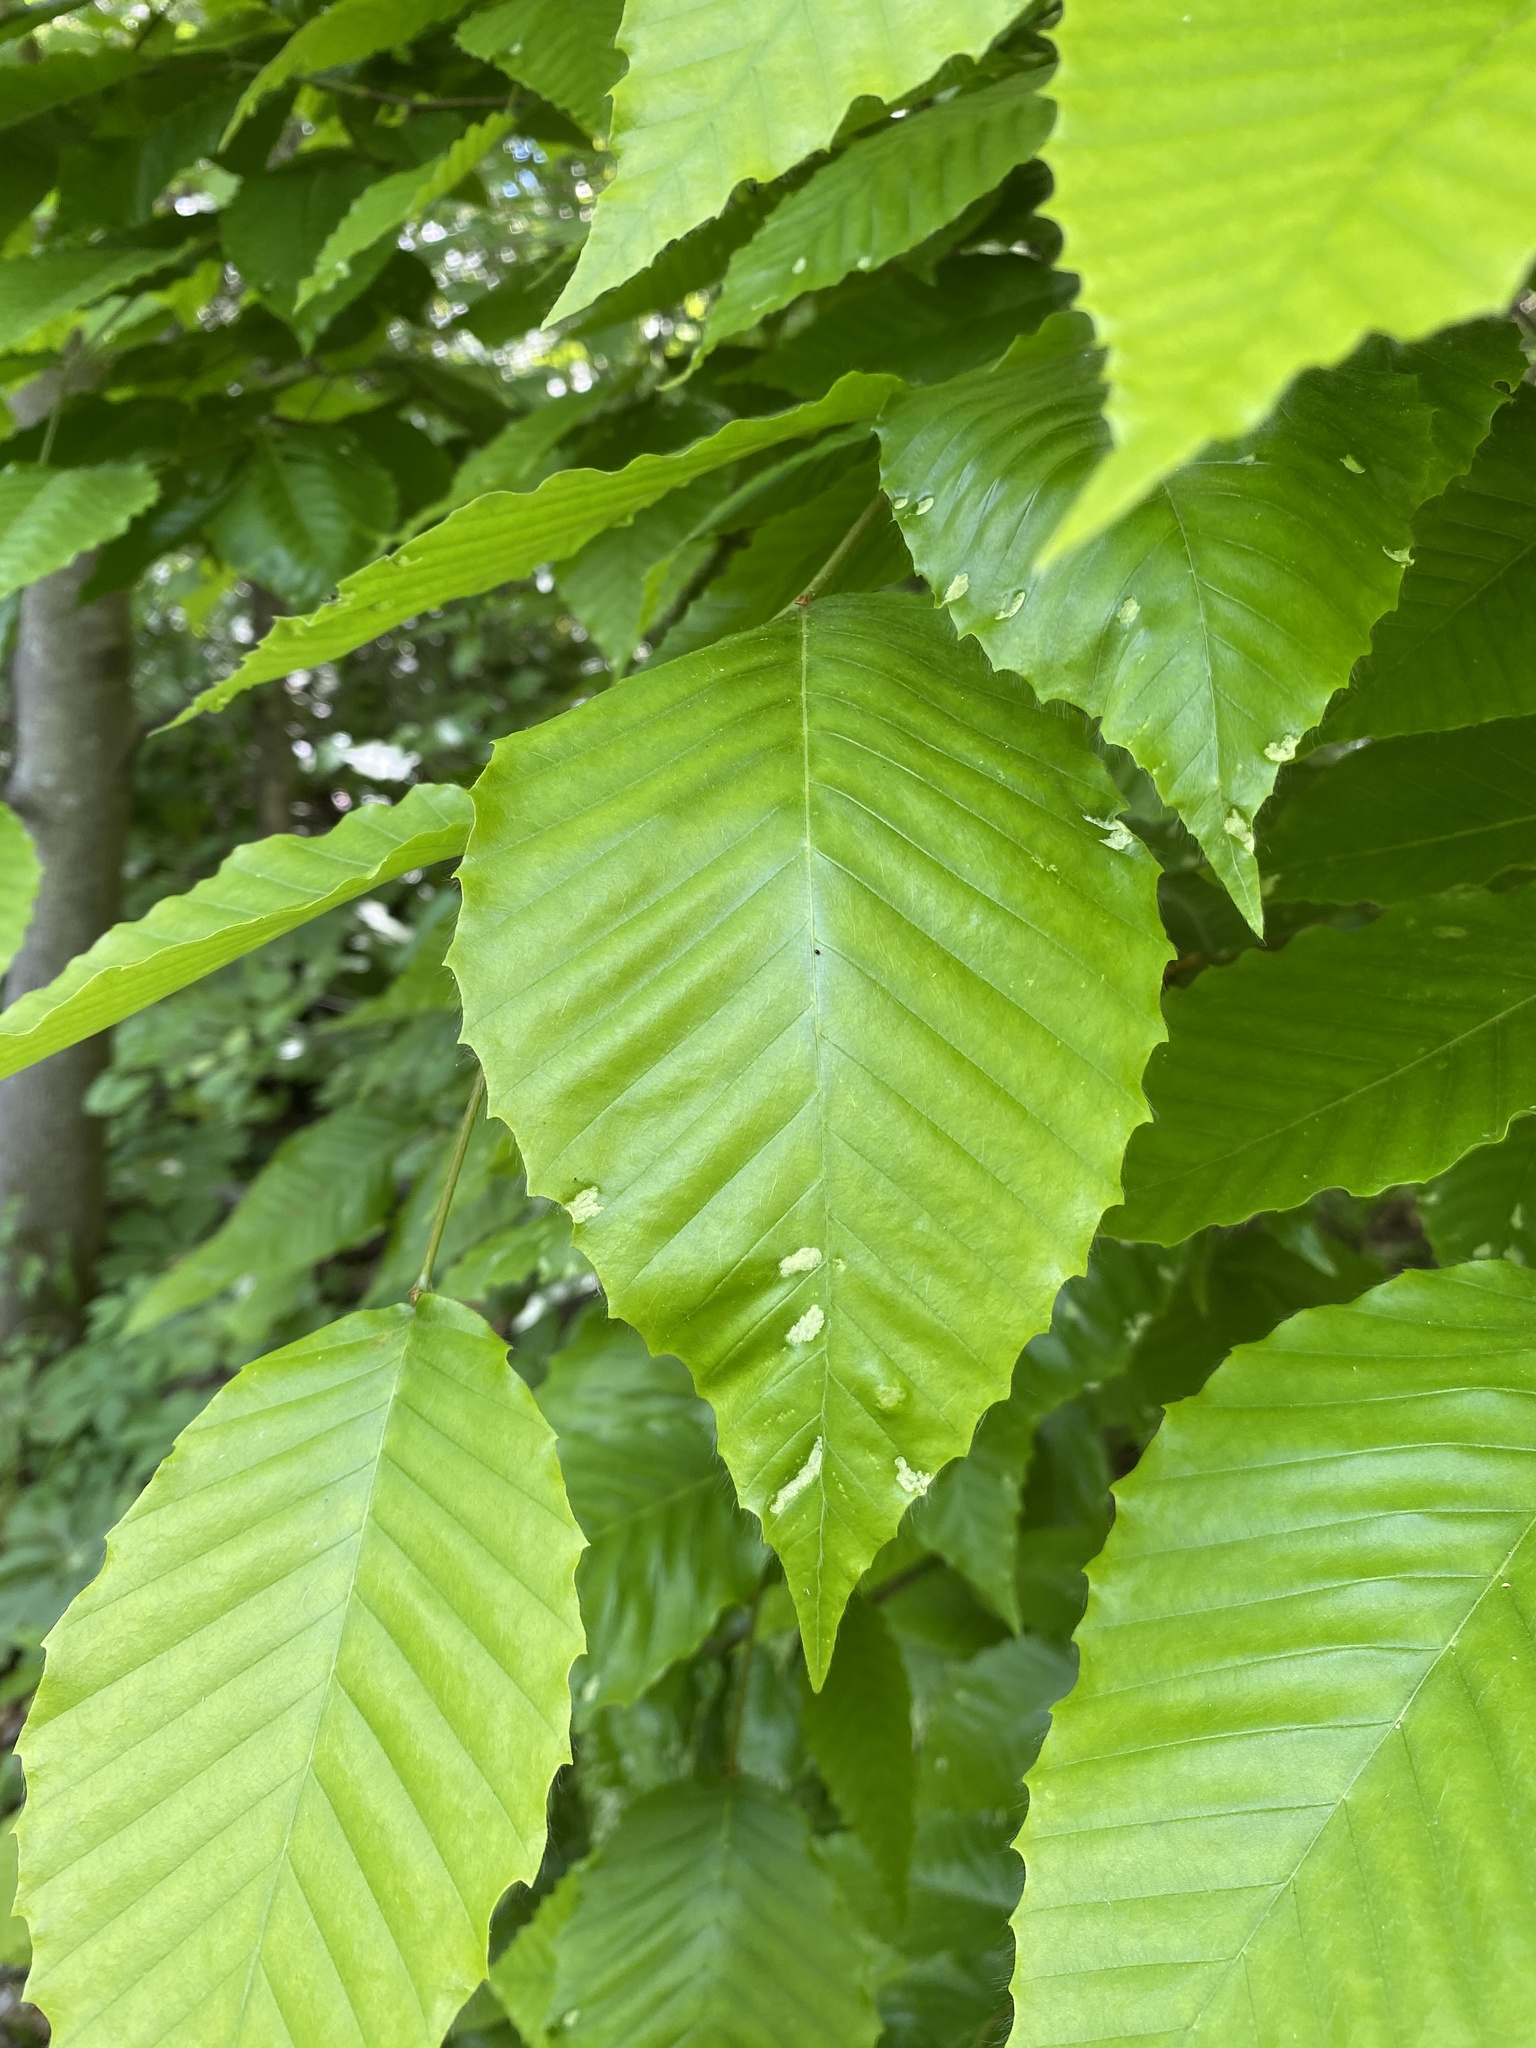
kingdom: Animalia
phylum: Arthropoda
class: Arachnida
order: Trombidiformes
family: Eriophyidae
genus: Acalitus
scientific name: Acalitus
